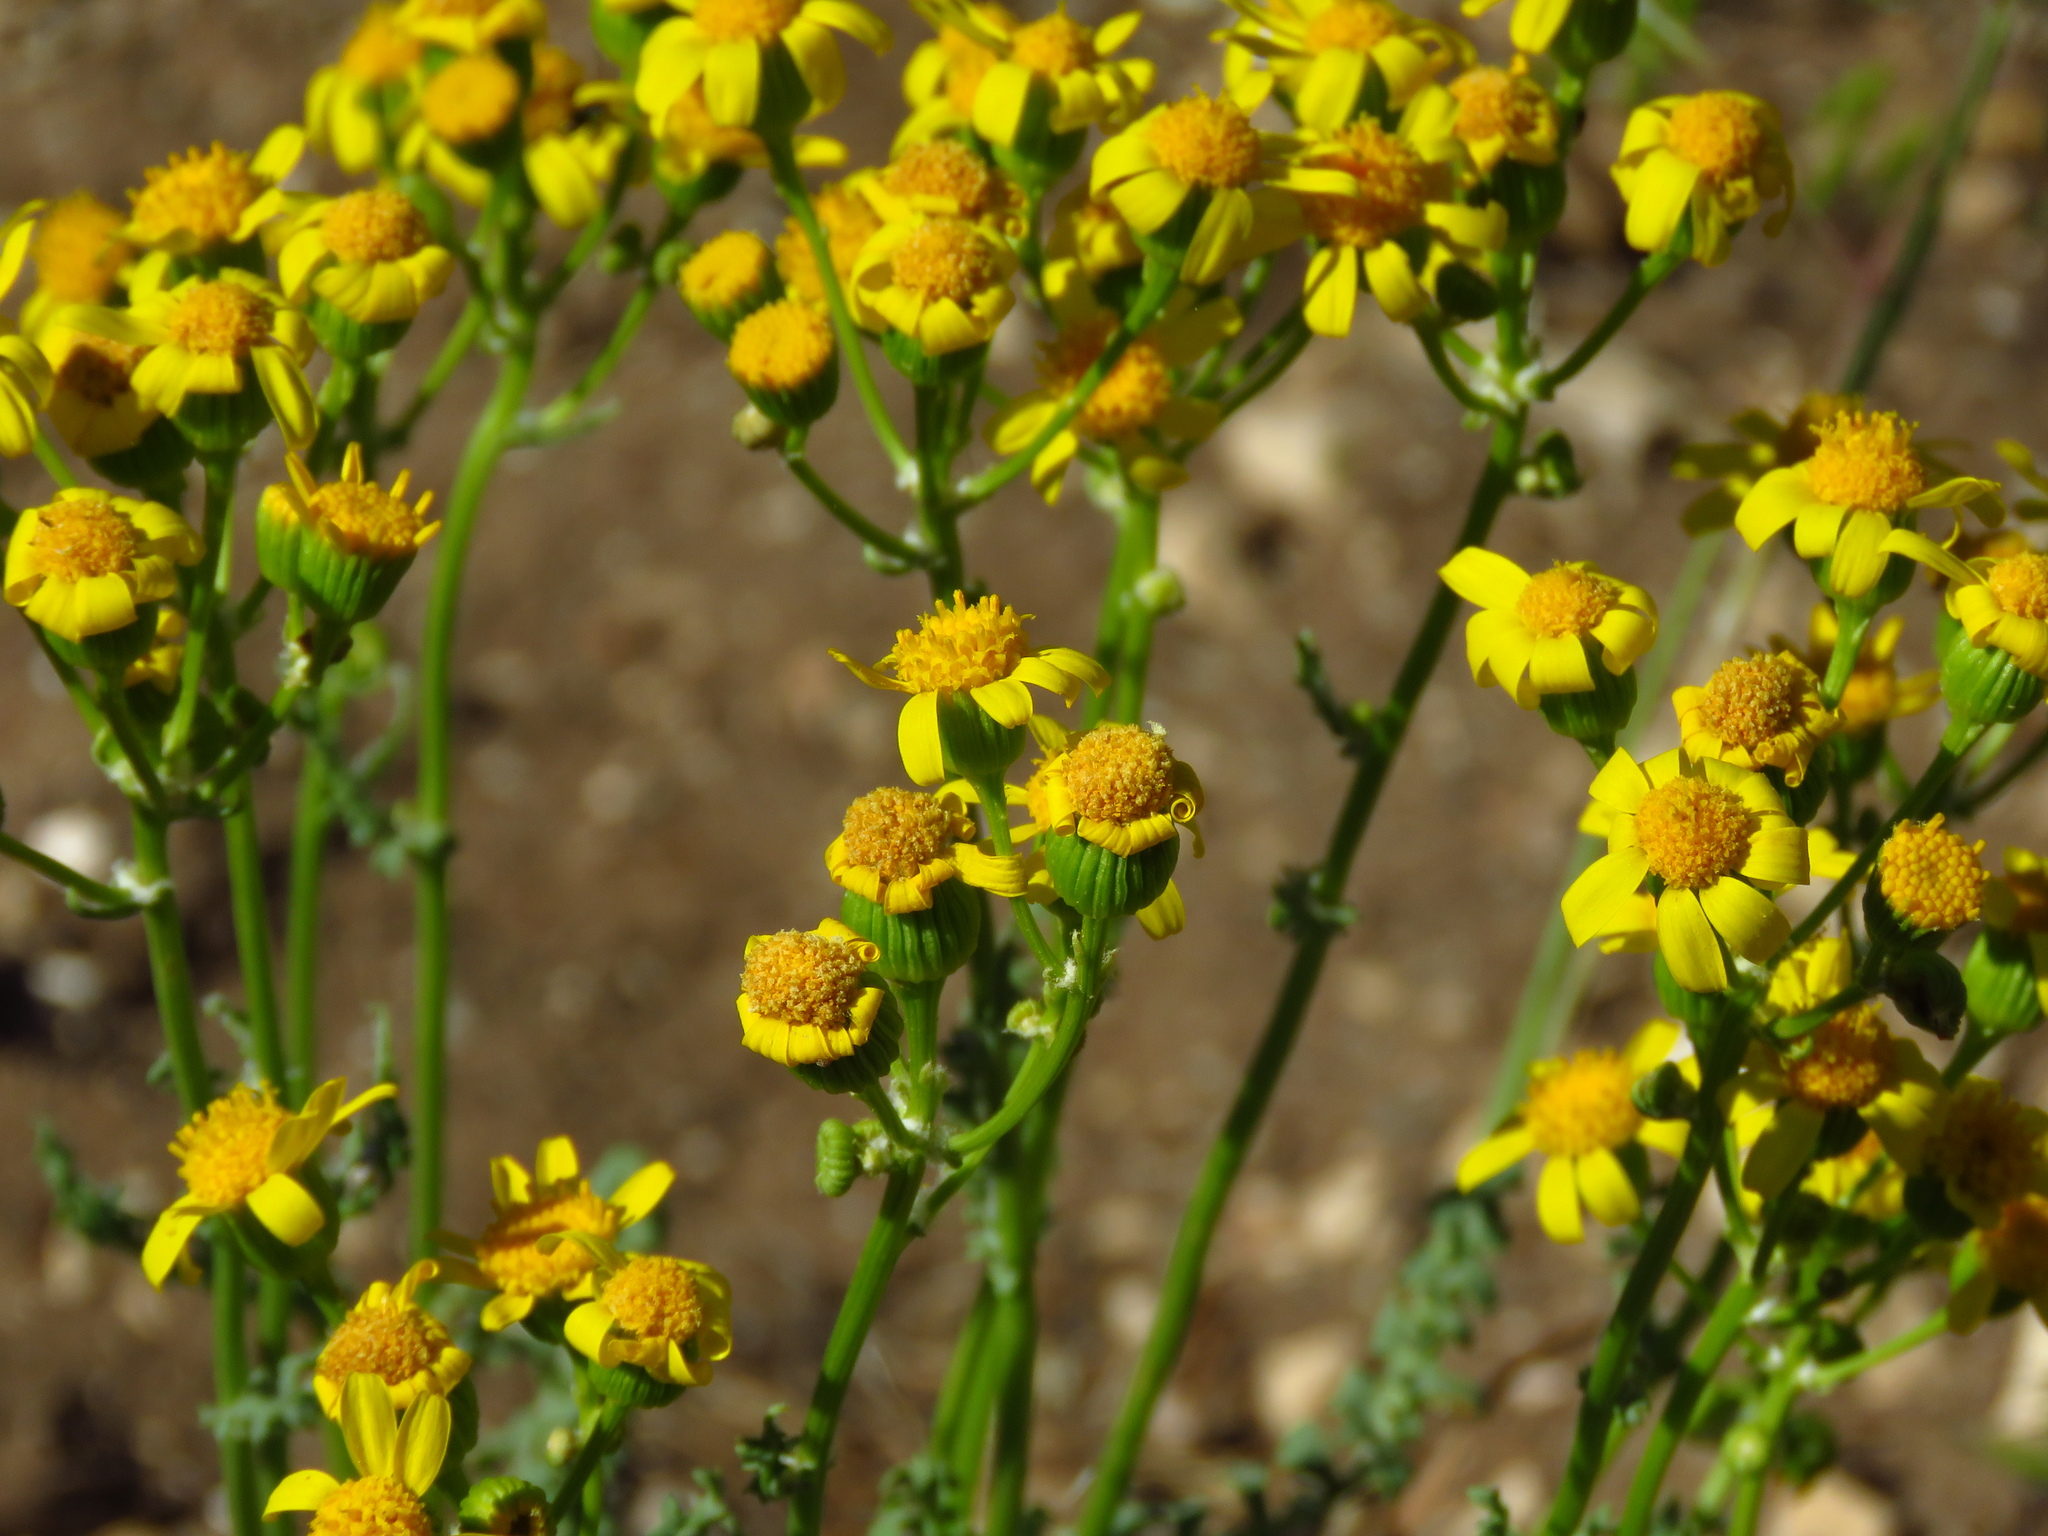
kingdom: Plantae
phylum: Tracheophyta
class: Magnoliopsida
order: Asterales
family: Asteraceae
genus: Packera
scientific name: Packera multilobata
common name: Lobe-leaf groundsel
